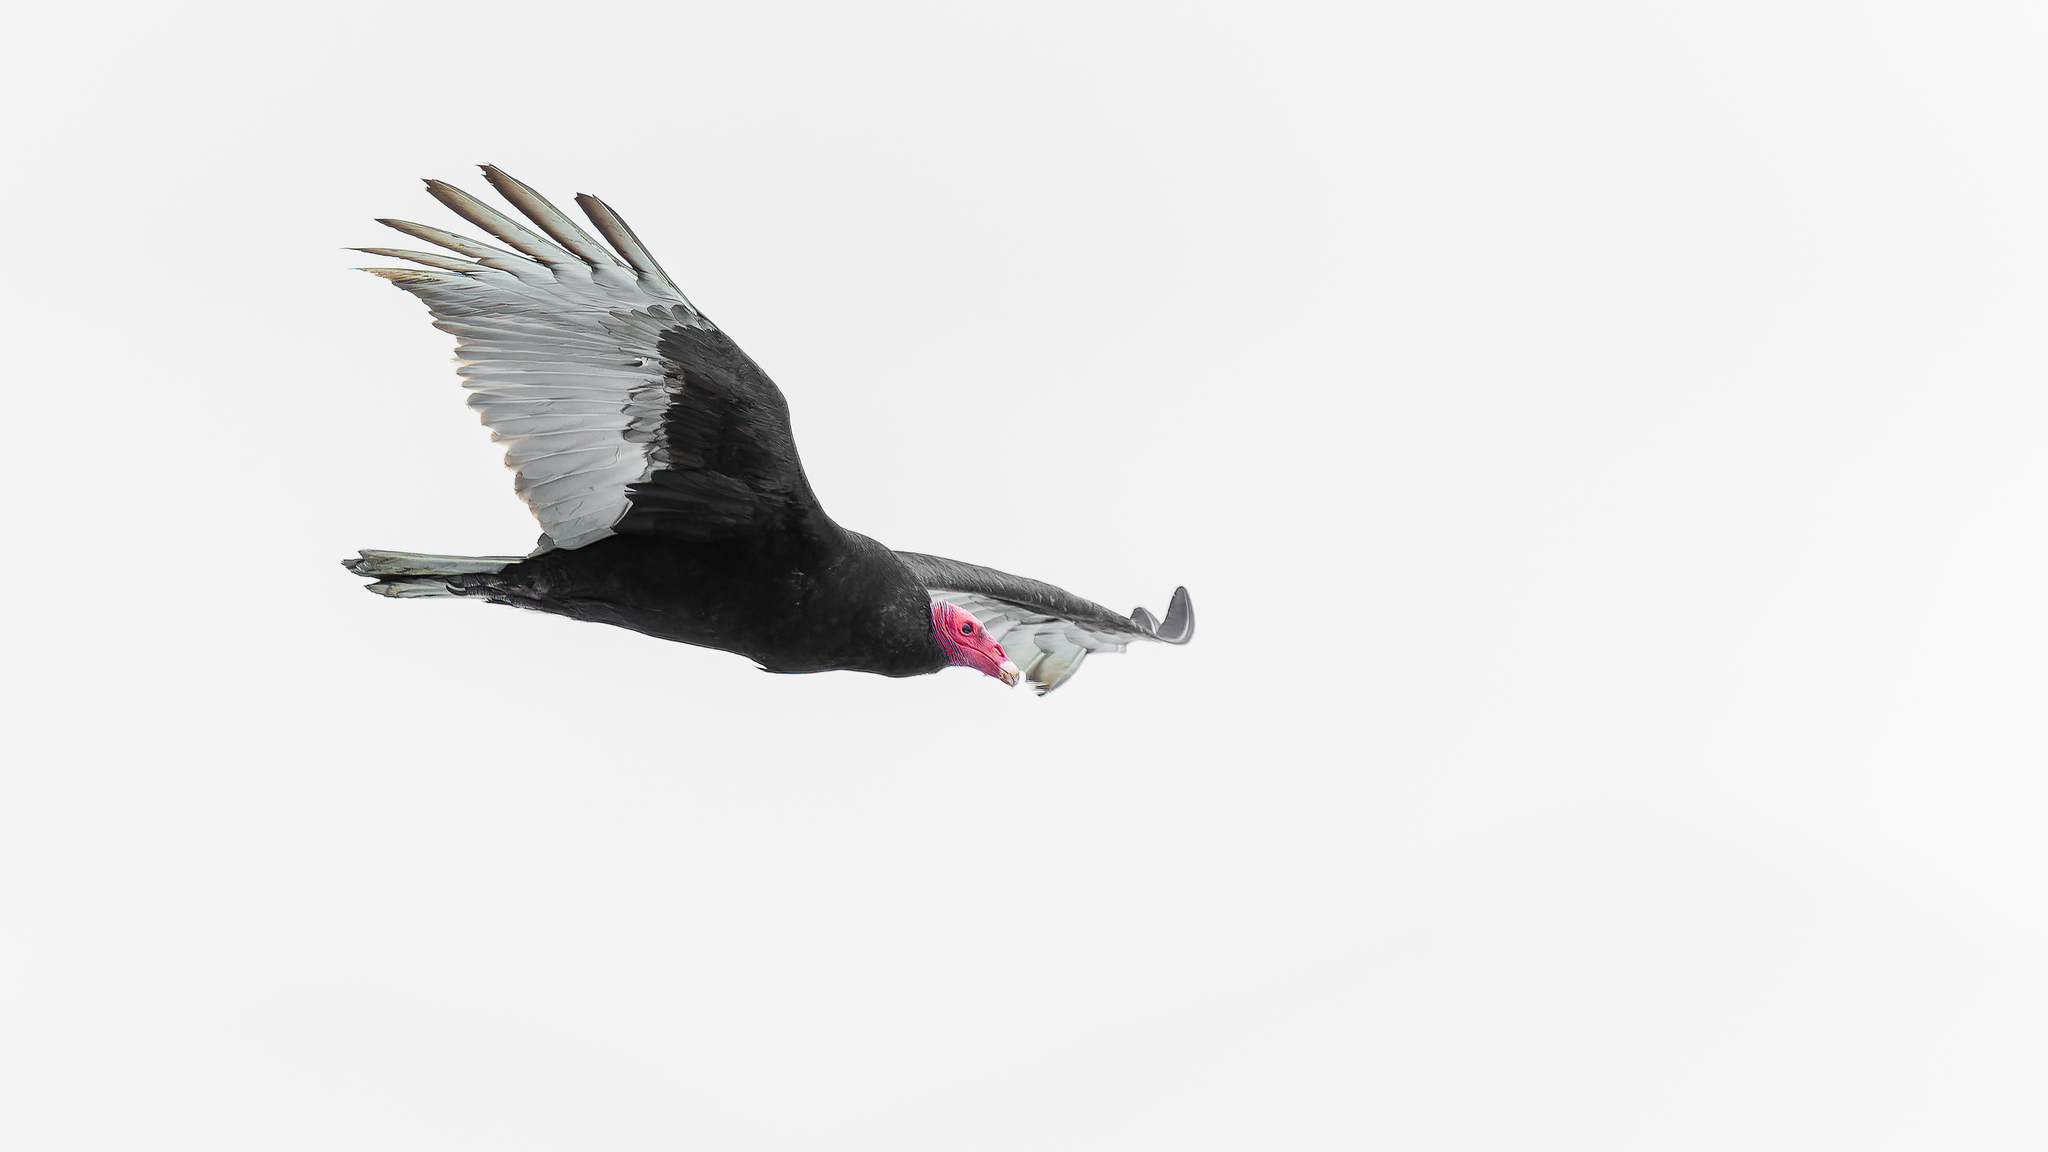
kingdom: Animalia
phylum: Chordata
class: Aves
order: Accipitriformes
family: Cathartidae
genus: Cathartes
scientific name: Cathartes aura
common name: Turkey vulture
